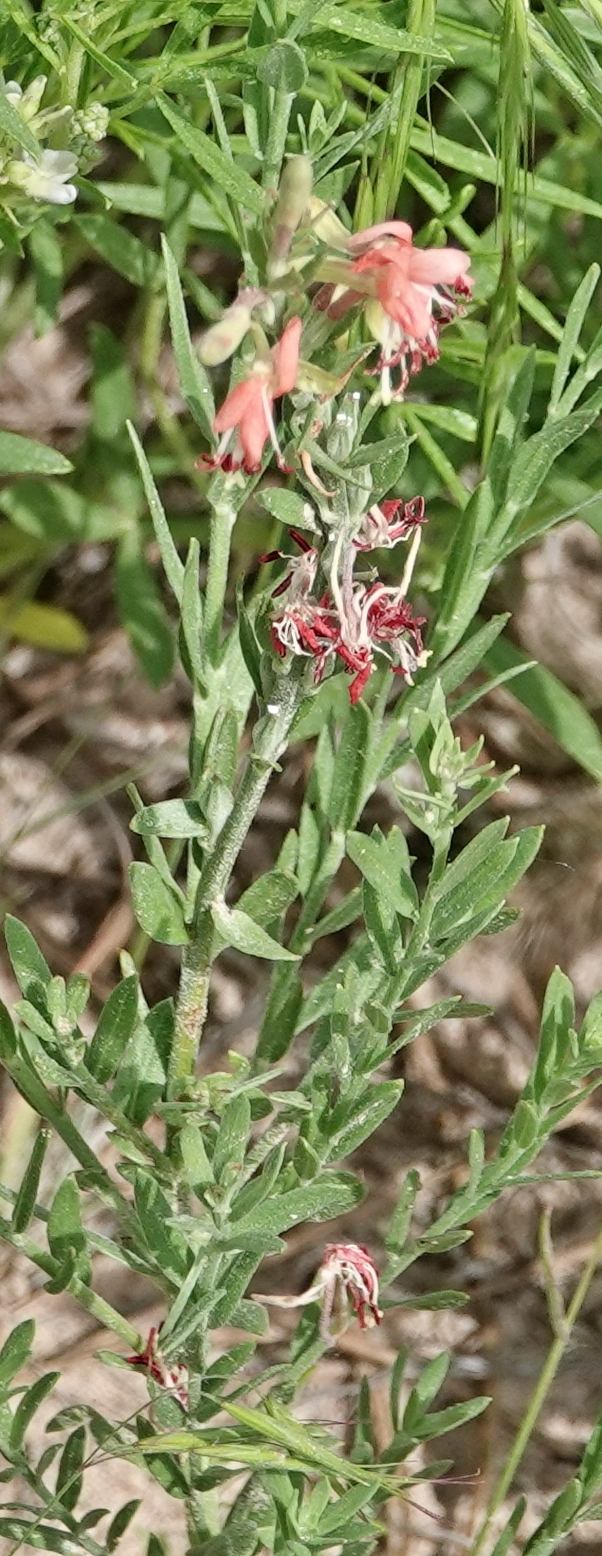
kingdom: Plantae
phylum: Tracheophyta
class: Magnoliopsida
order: Myrtales
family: Onagraceae
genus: Oenothera
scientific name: Oenothera suffrutescens
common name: Scarlet beeblossom
